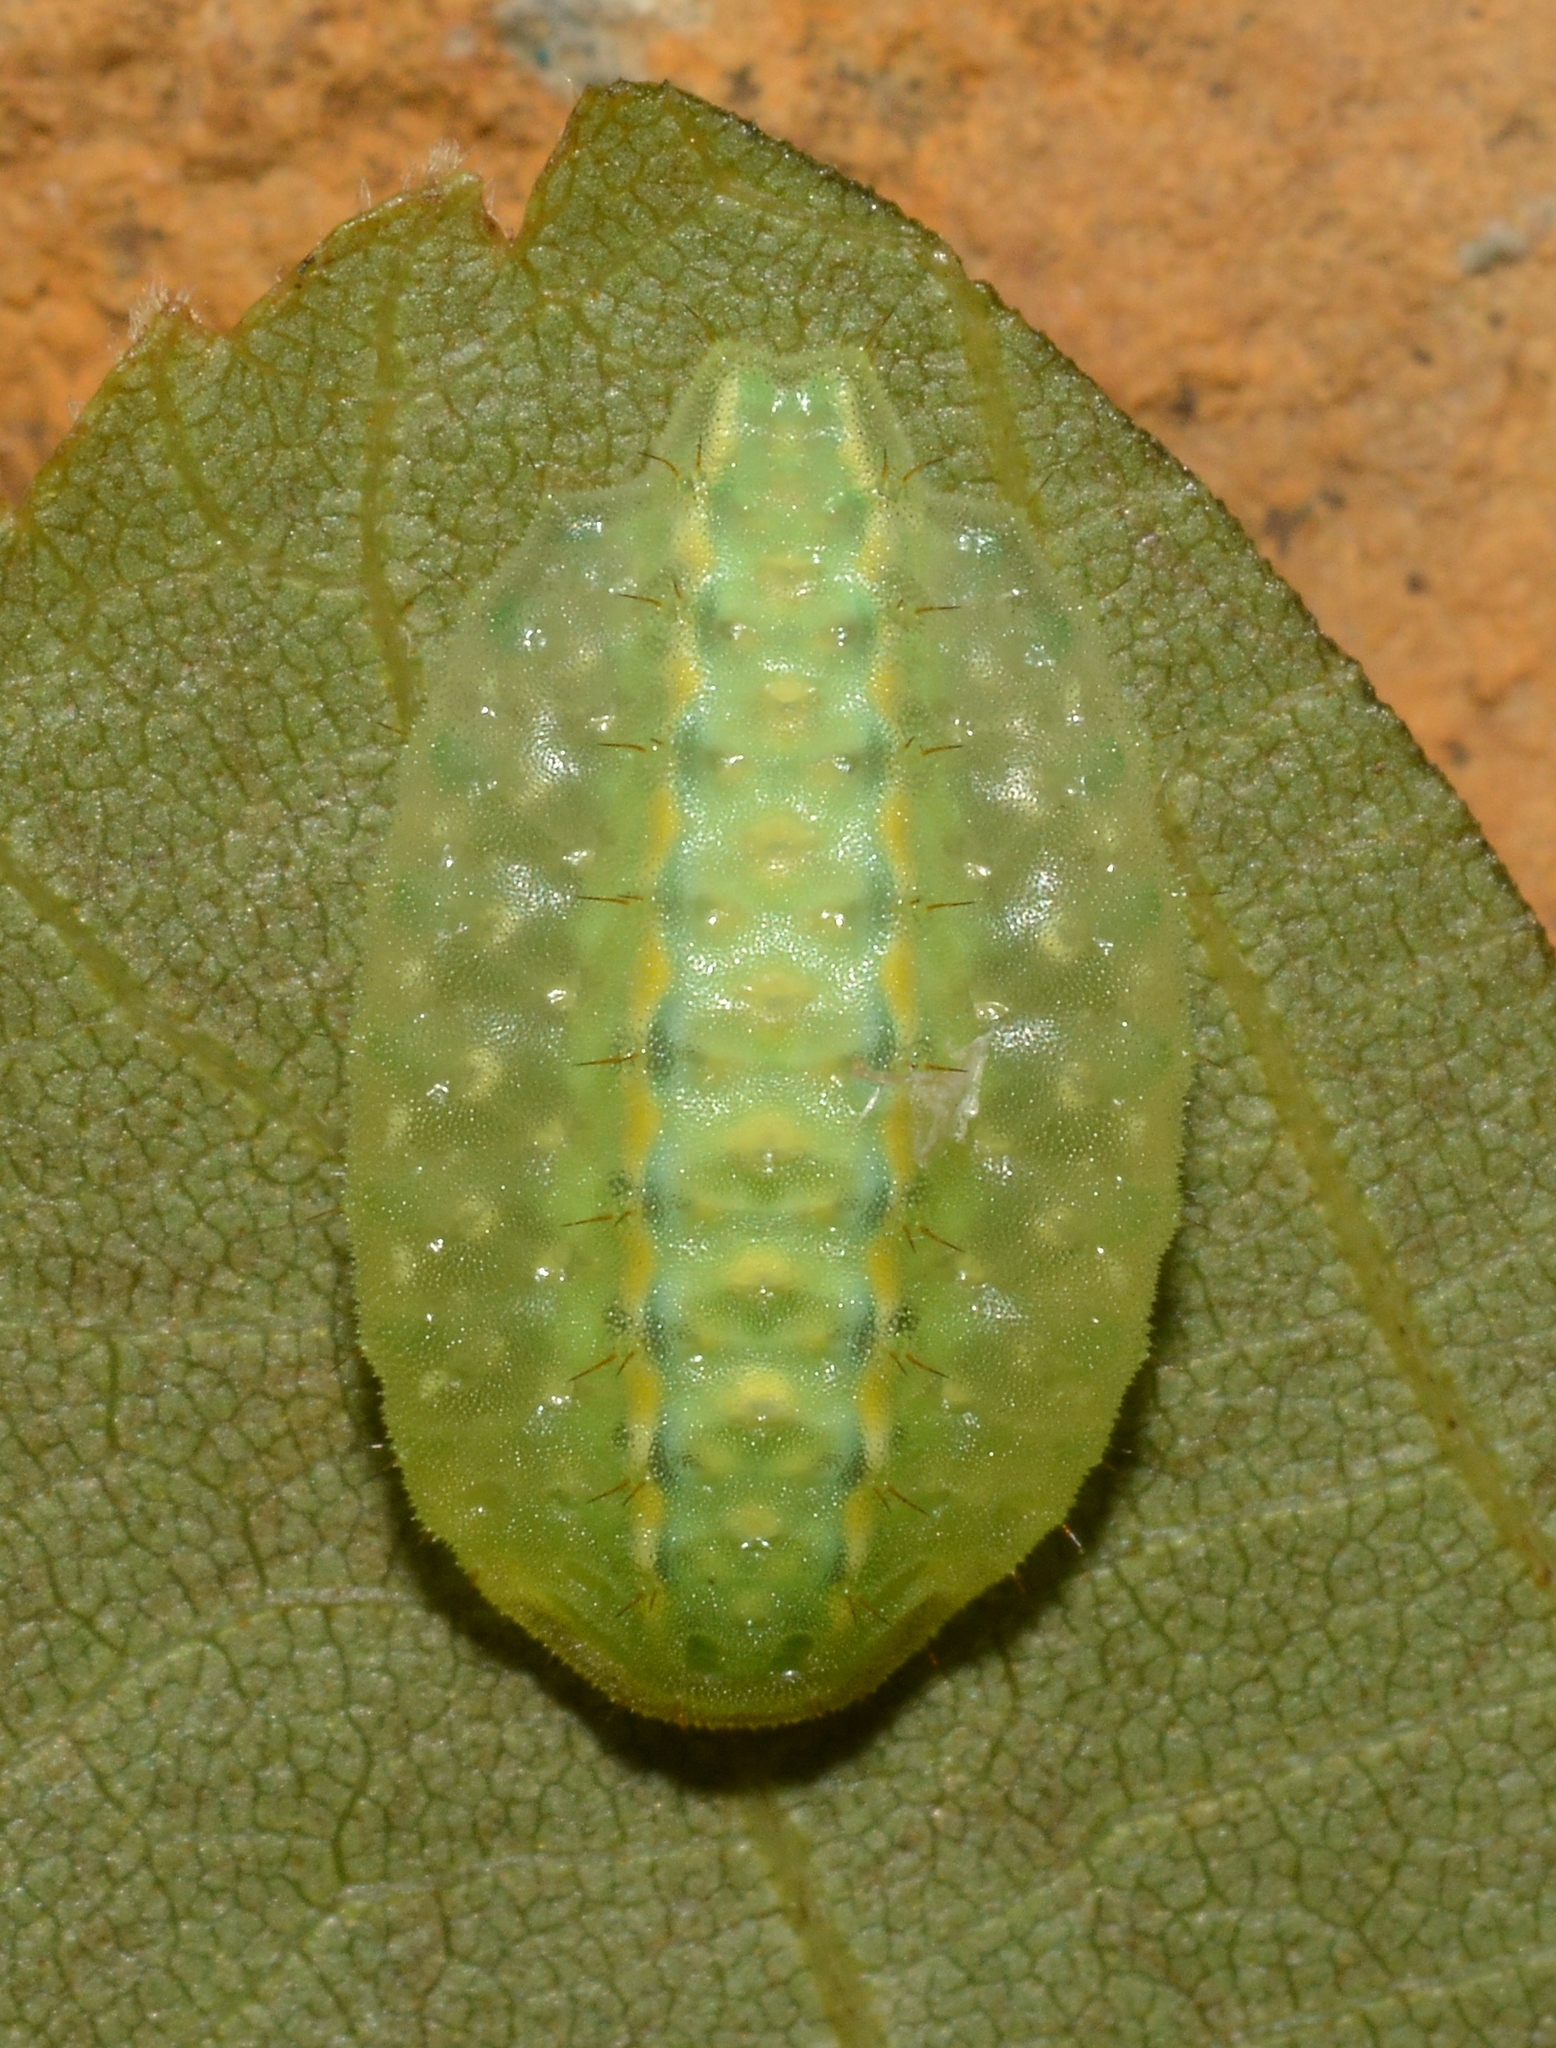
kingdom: Animalia
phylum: Arthropoda
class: Insecta
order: Lepidoptera
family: Limacodidae
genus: Lithacodes
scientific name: Lithacodes fasciola
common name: Yellow-shouldered slug moth
